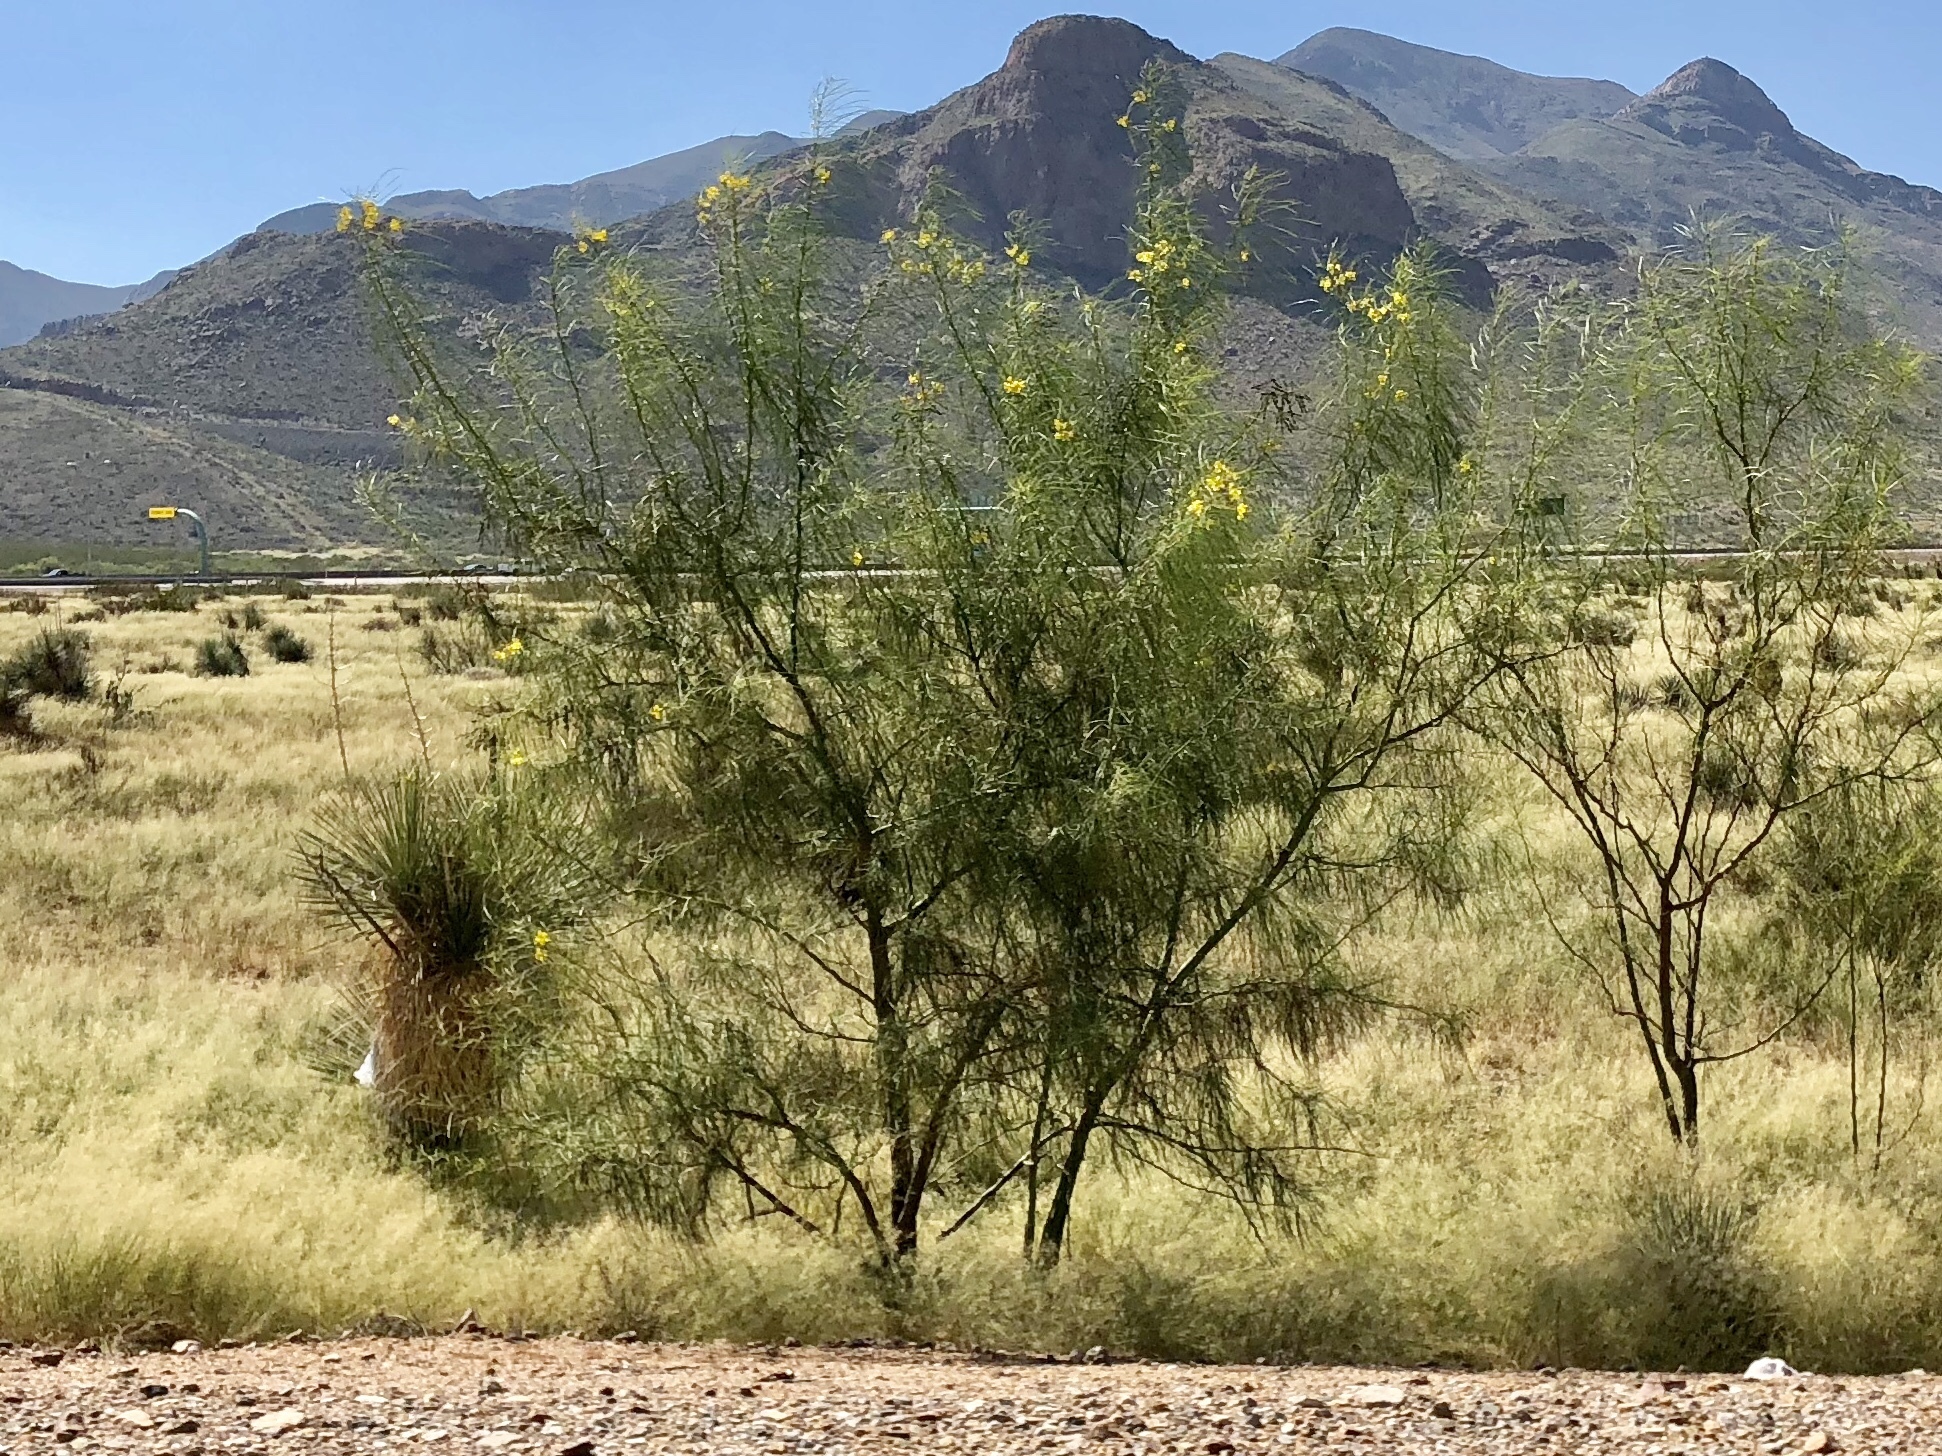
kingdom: Plantae
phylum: Tracheophyta
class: Magnoliopsida
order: Fabales
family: Fabaceae
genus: Parkinsonia
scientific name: Parkinsonia aculeata
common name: Jerusalem thorn
